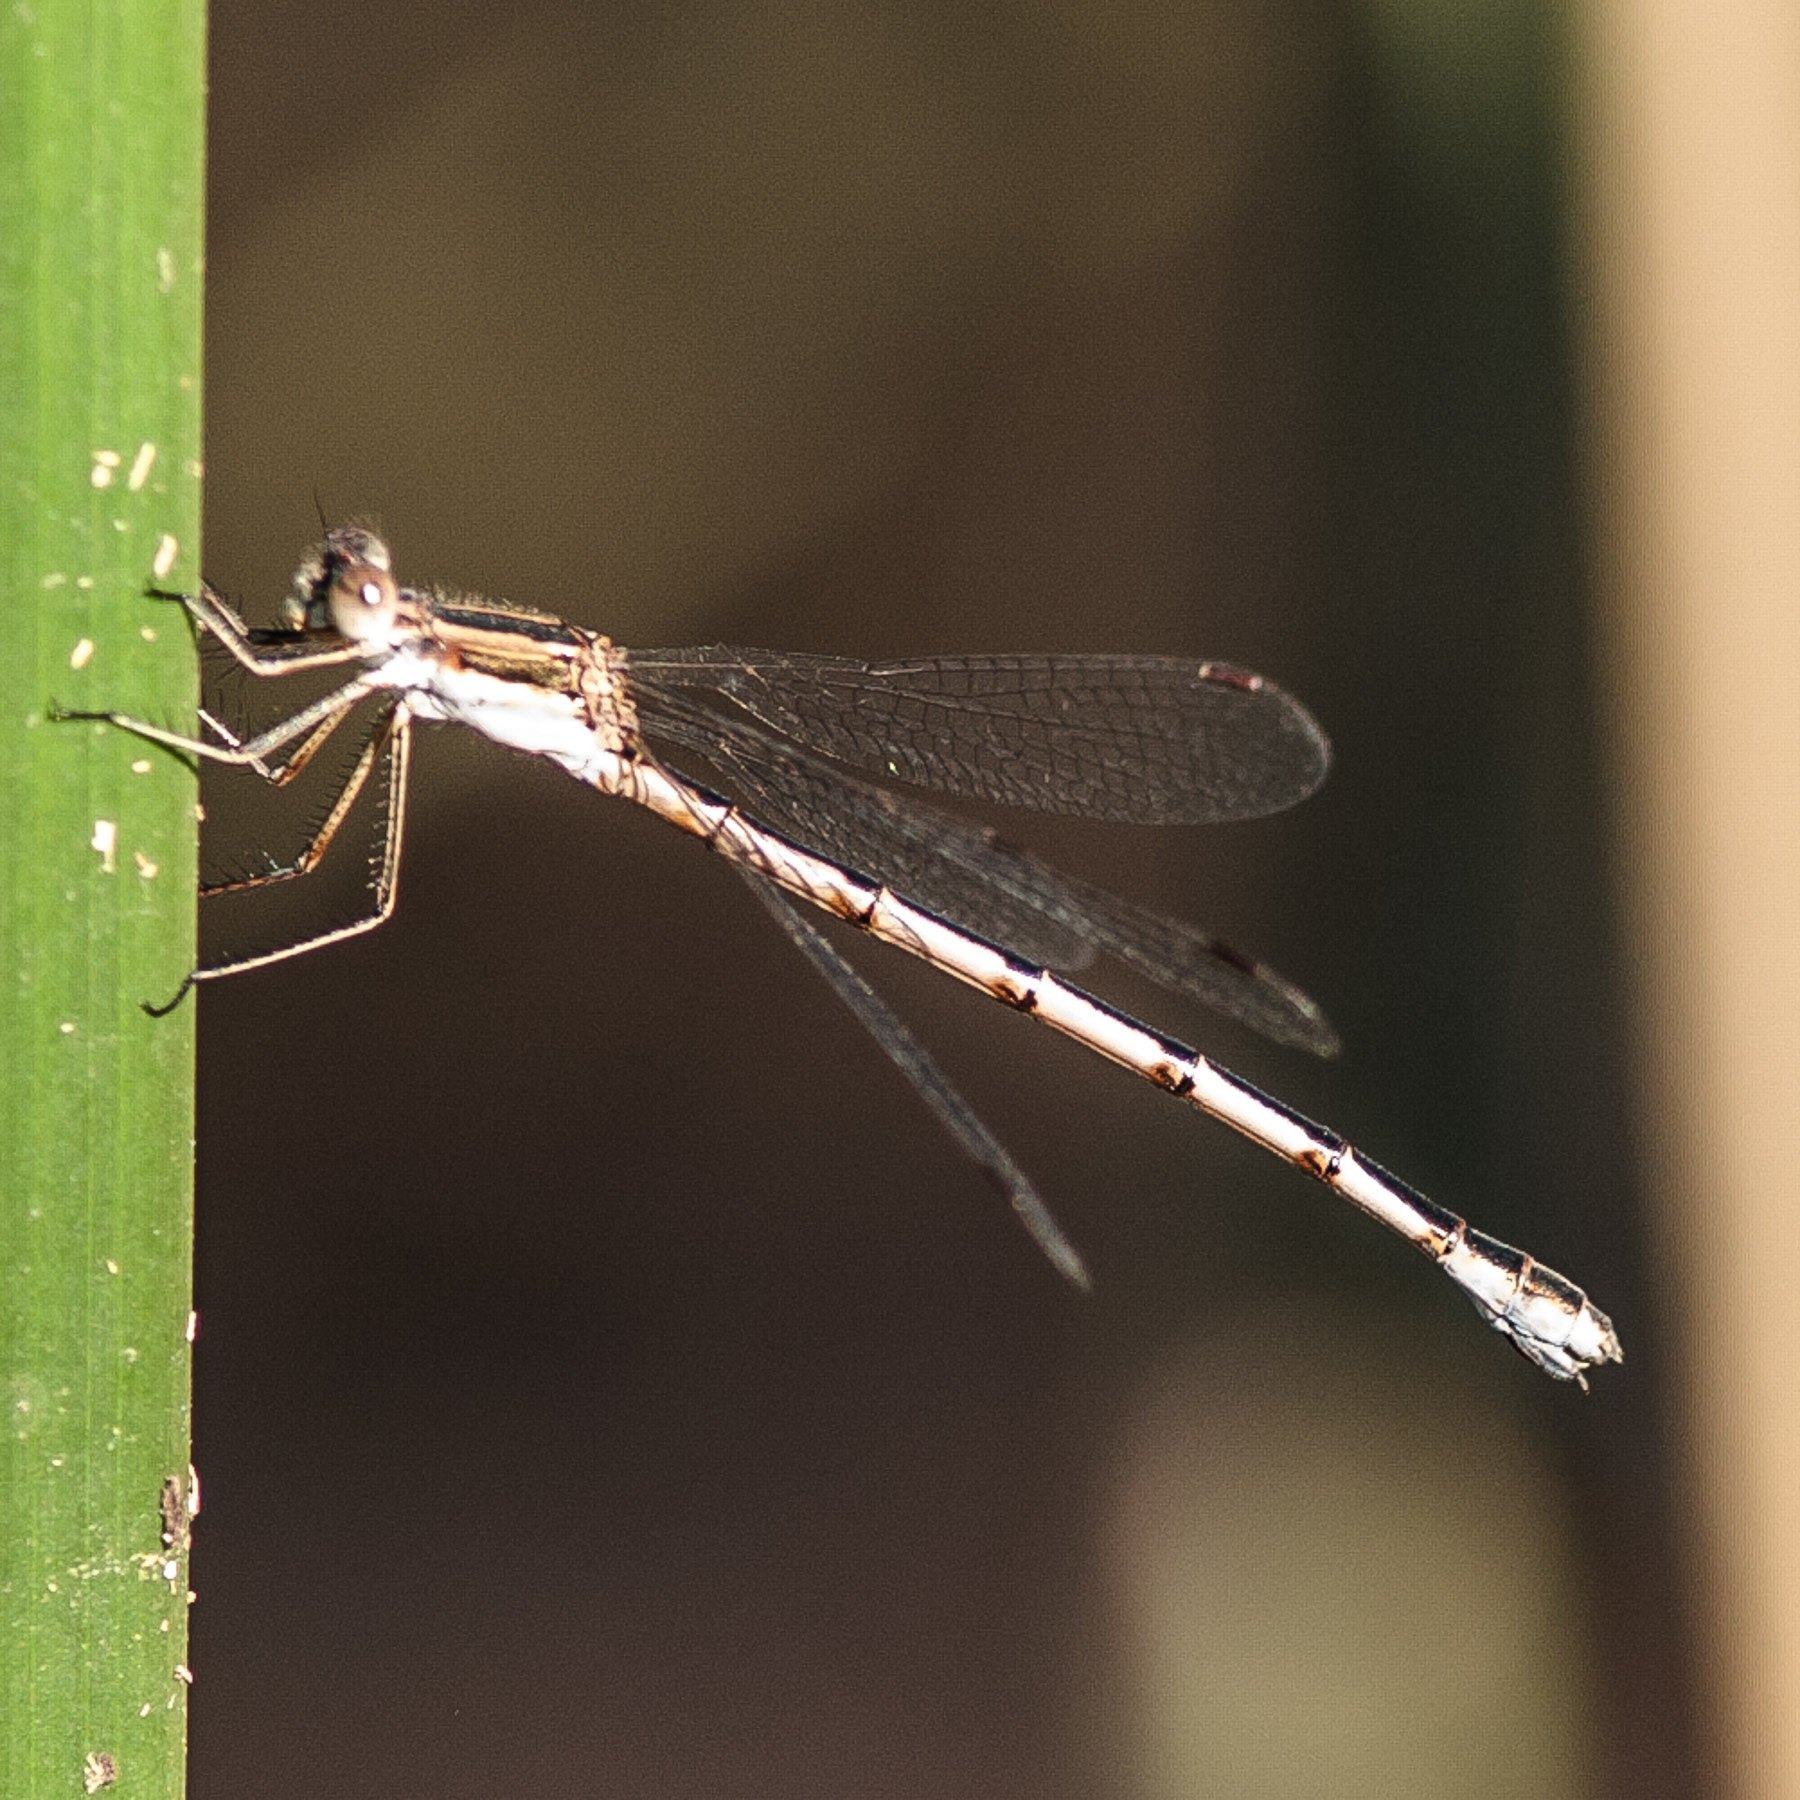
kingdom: Animalia
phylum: Arthropoda
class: Insecta
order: Odonata
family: Lestidae
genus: Lestes
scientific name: Lestes australis
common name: Southern spreadwing
